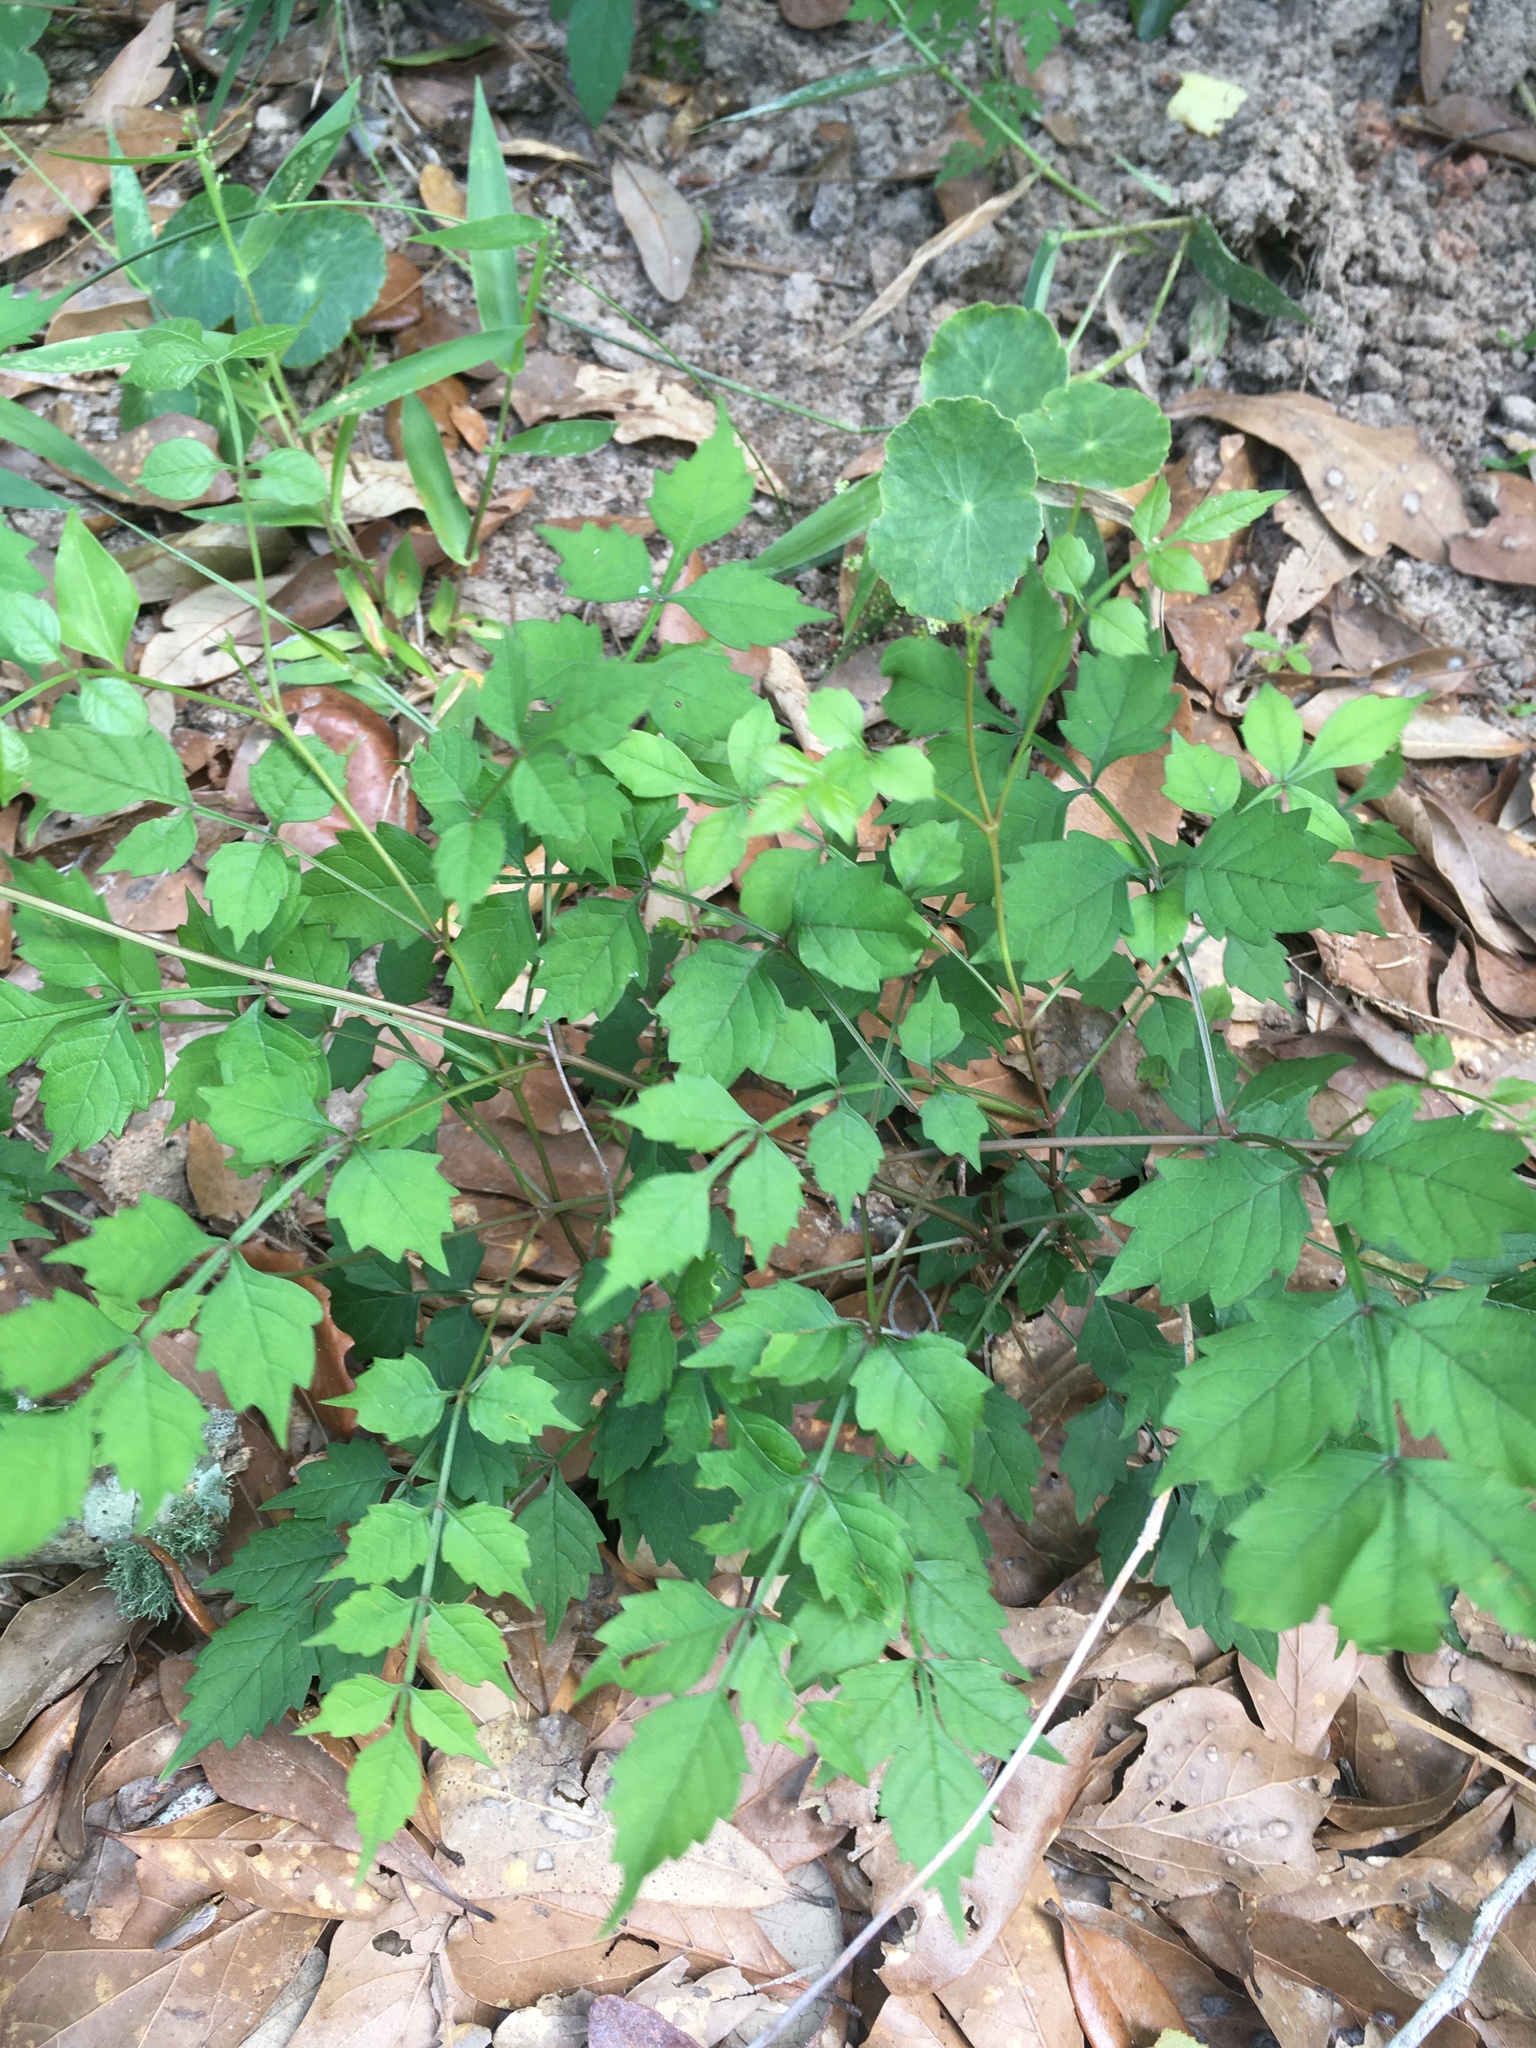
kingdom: Plantae
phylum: Tracheophyta
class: Magnoliopsida
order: Lamiales
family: Bignoniaceae
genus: Campsis
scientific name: Campsis radicans
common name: Trumpet-creeper
